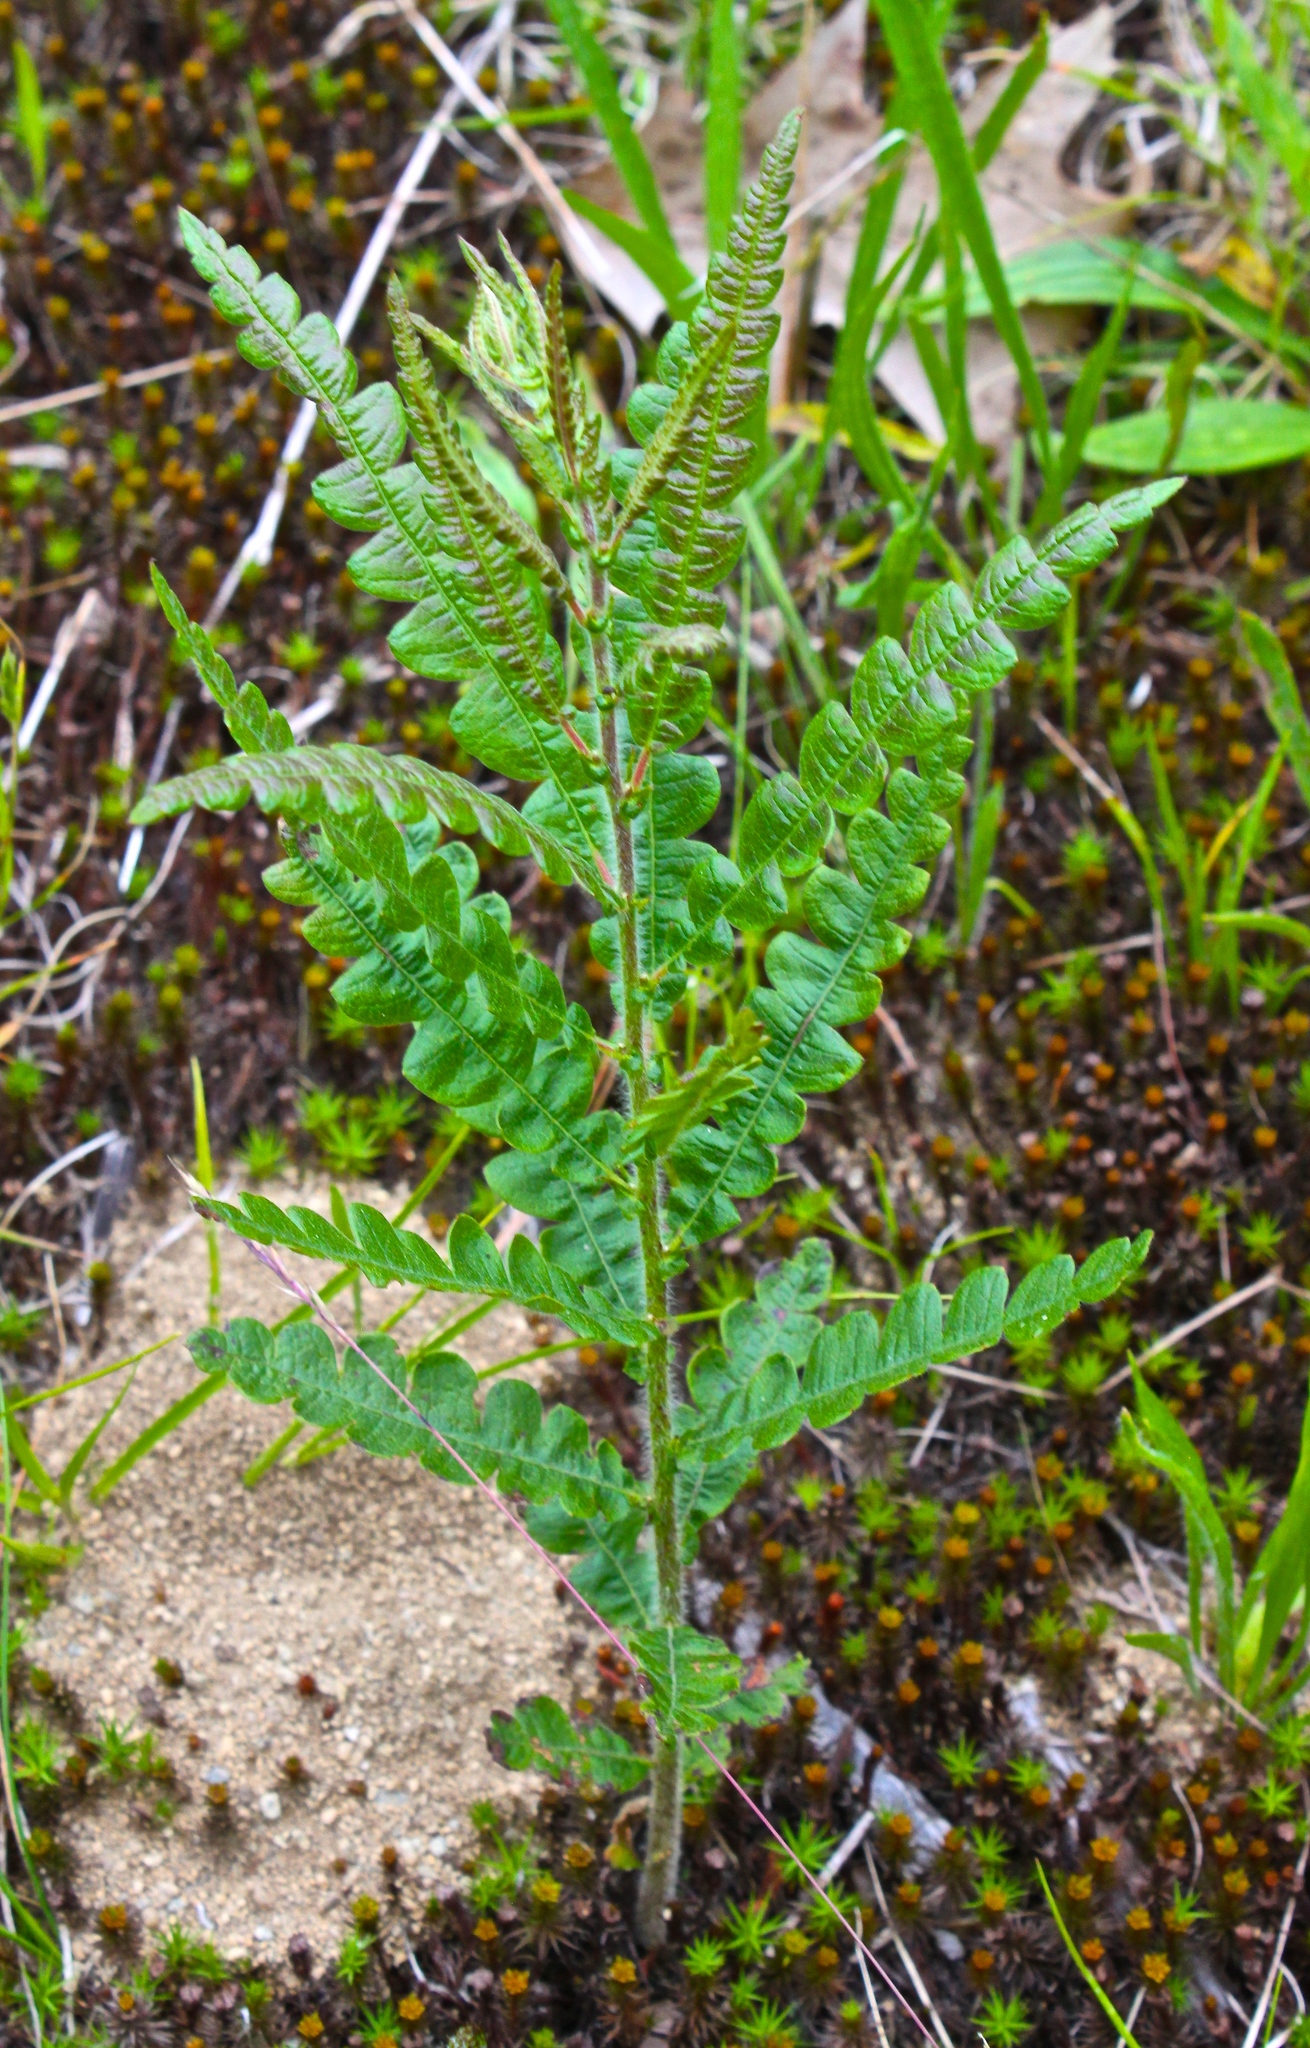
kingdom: Plantae
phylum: Tracheophyta
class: Magnoliopsida
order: Fagales
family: Myricaceae
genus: Comptonia
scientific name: Comptonia peregrina
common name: Sweet-fern
